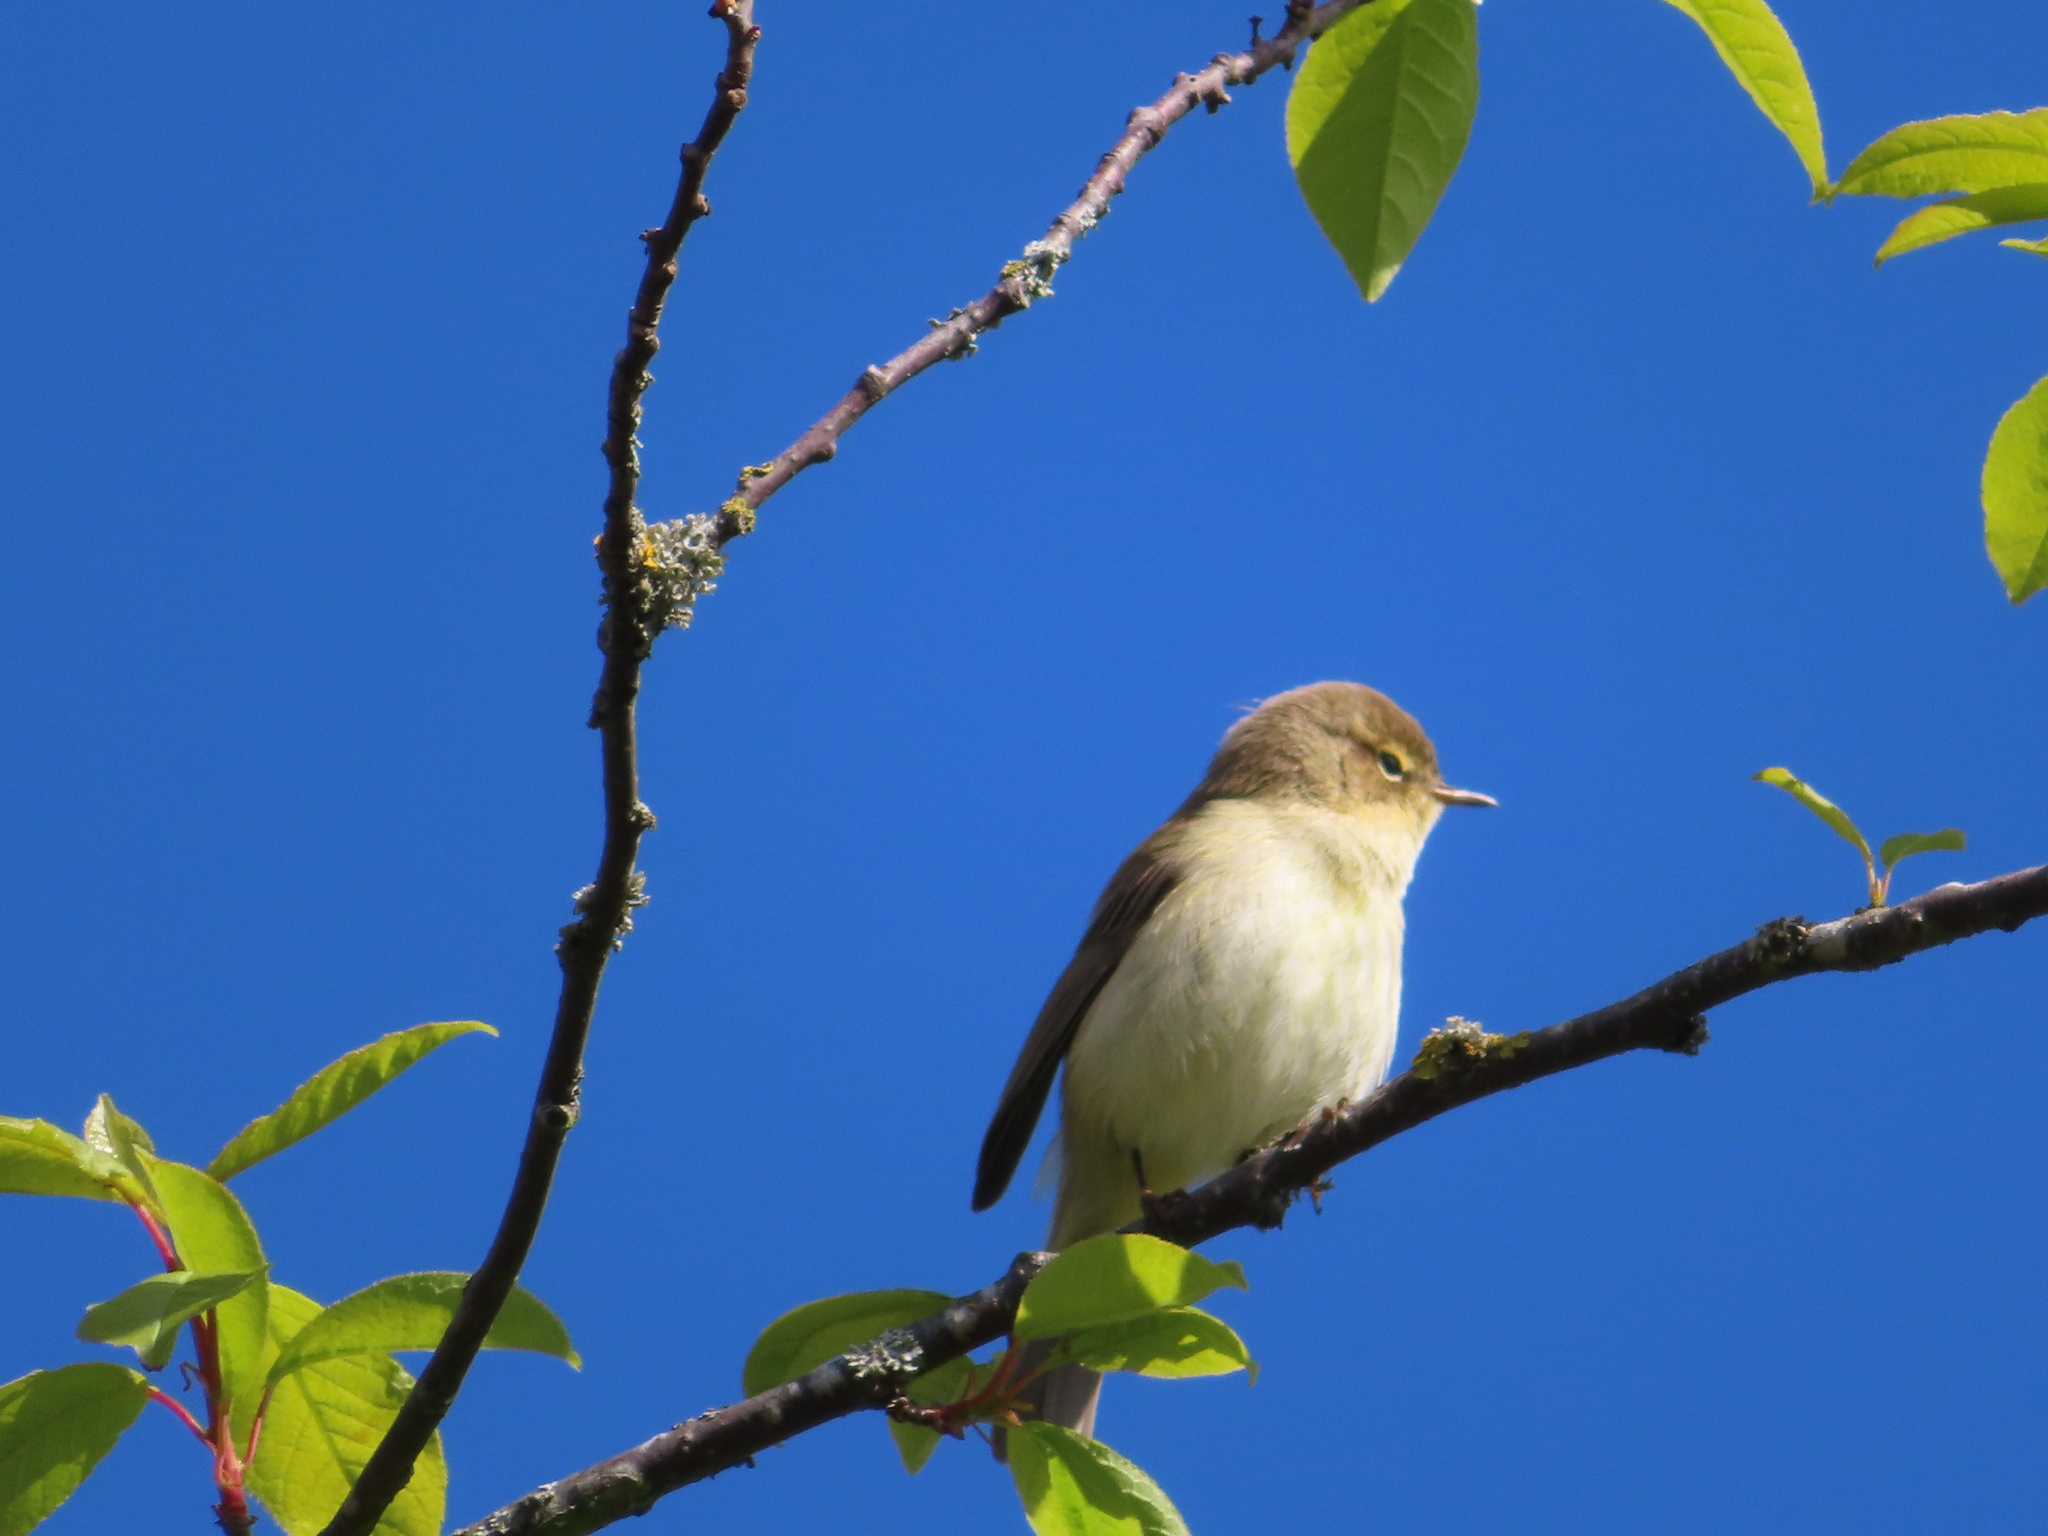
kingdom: Animalia
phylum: Chordata
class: Aves
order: Passeriformes
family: Phylloscopidae
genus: Phylloscopus
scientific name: Phylloscopus collybita
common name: Common chiffchaff
